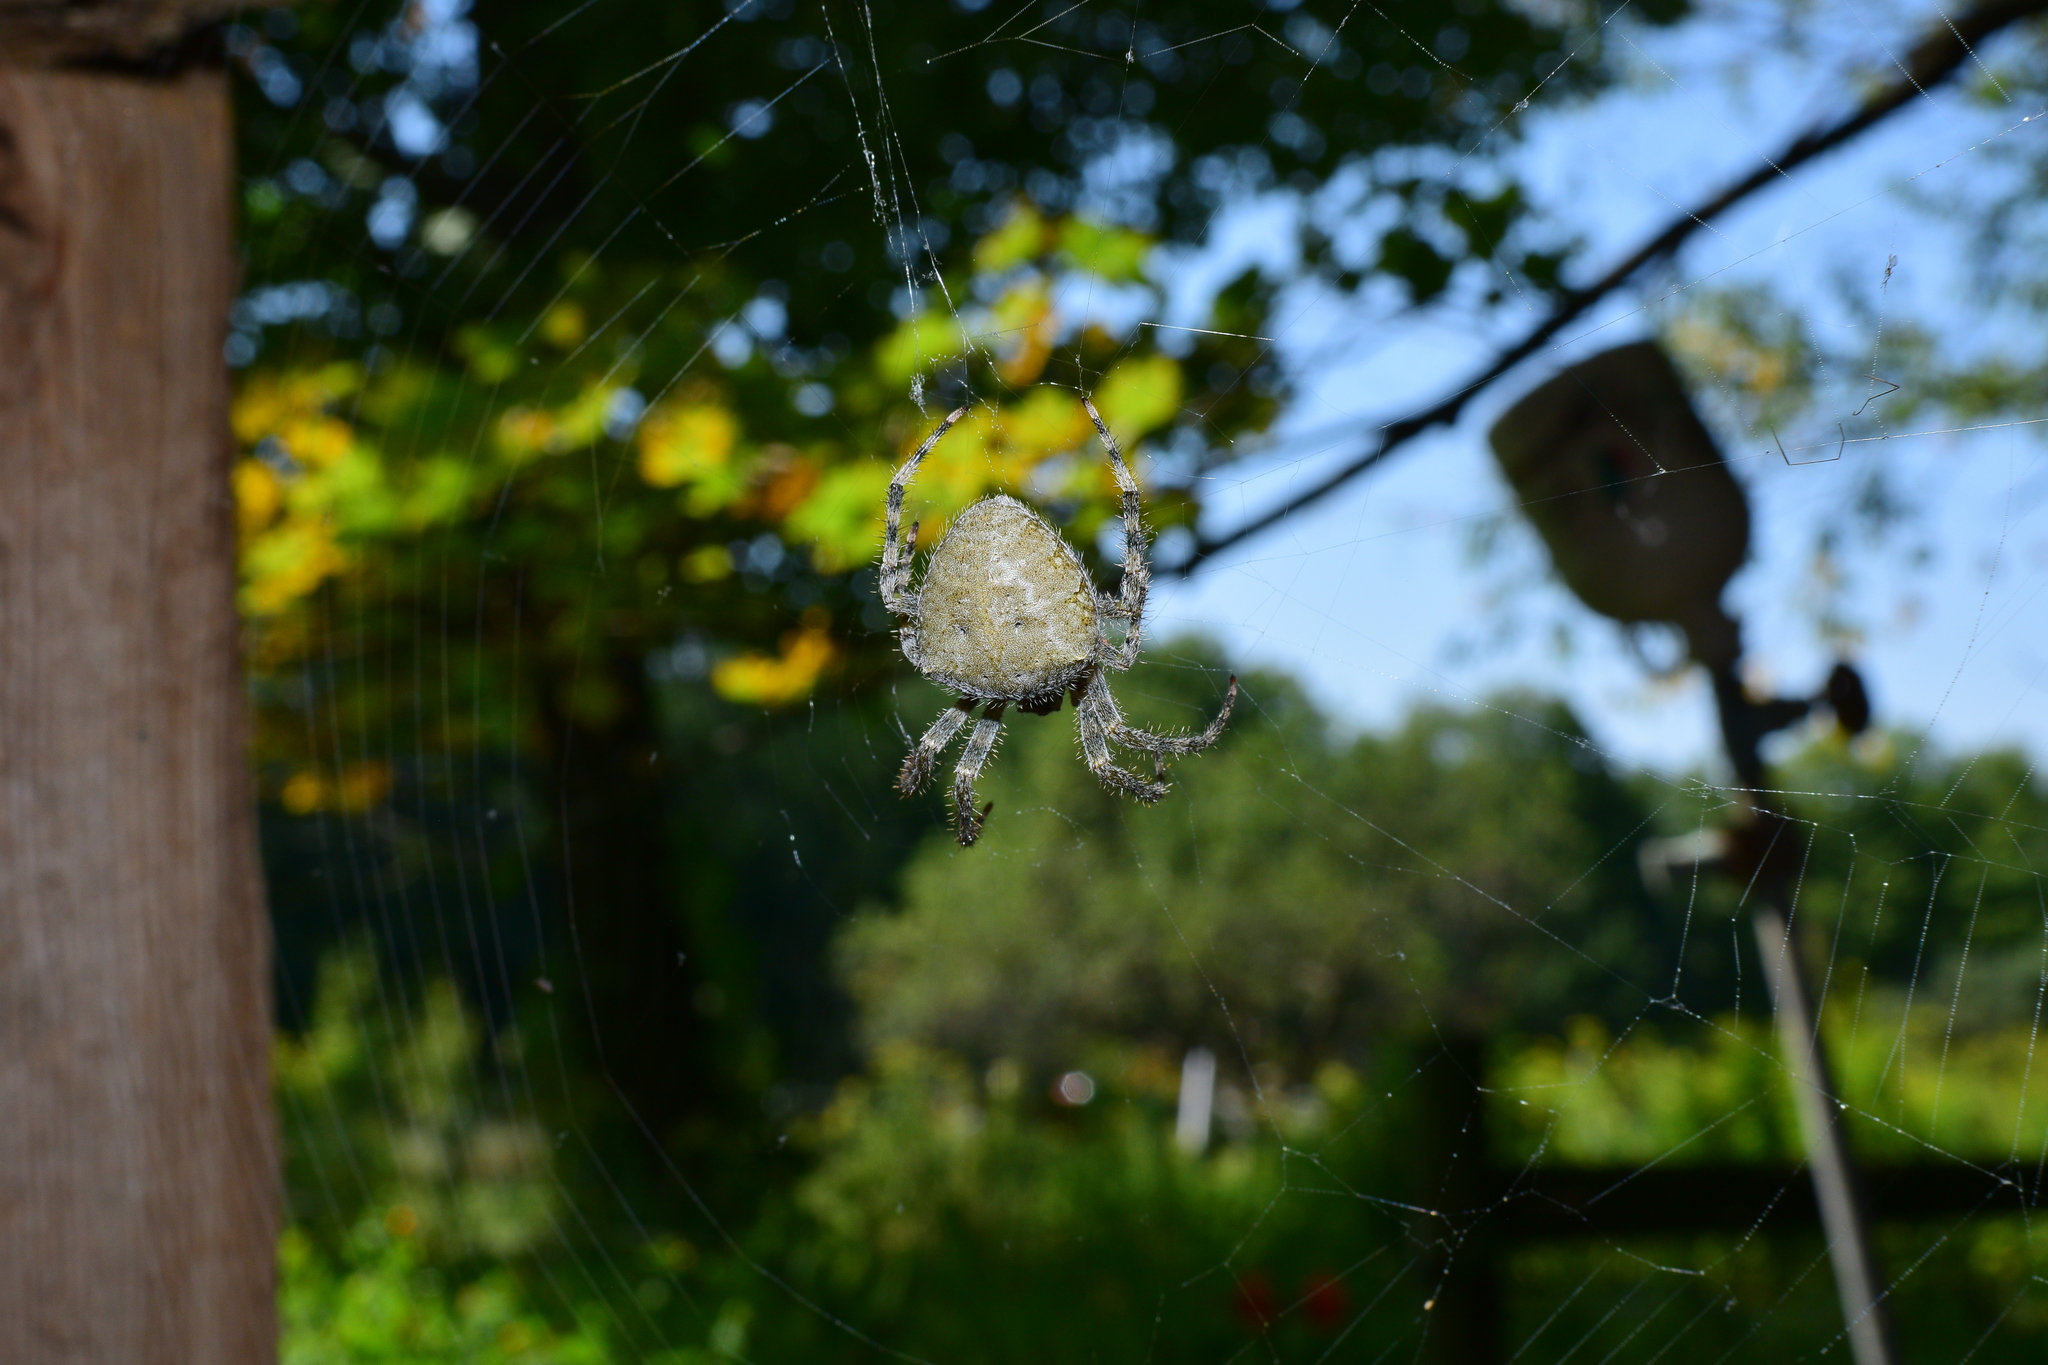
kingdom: Animalia
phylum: Arthropoda
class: Arachnida
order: Araneae
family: Araneidae
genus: Araneus
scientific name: Araneus cavaticus
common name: Barn orbweaver
